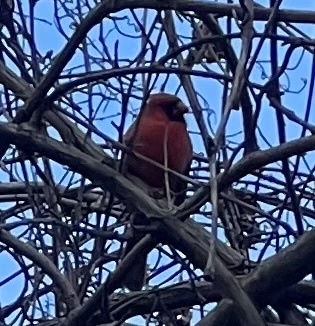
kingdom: Animalia
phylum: Chordata
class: Aves
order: Passeriformes
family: Cardinalidae
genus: Cardinalis
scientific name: Cardinalis cardinalis
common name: Northern cardinal
